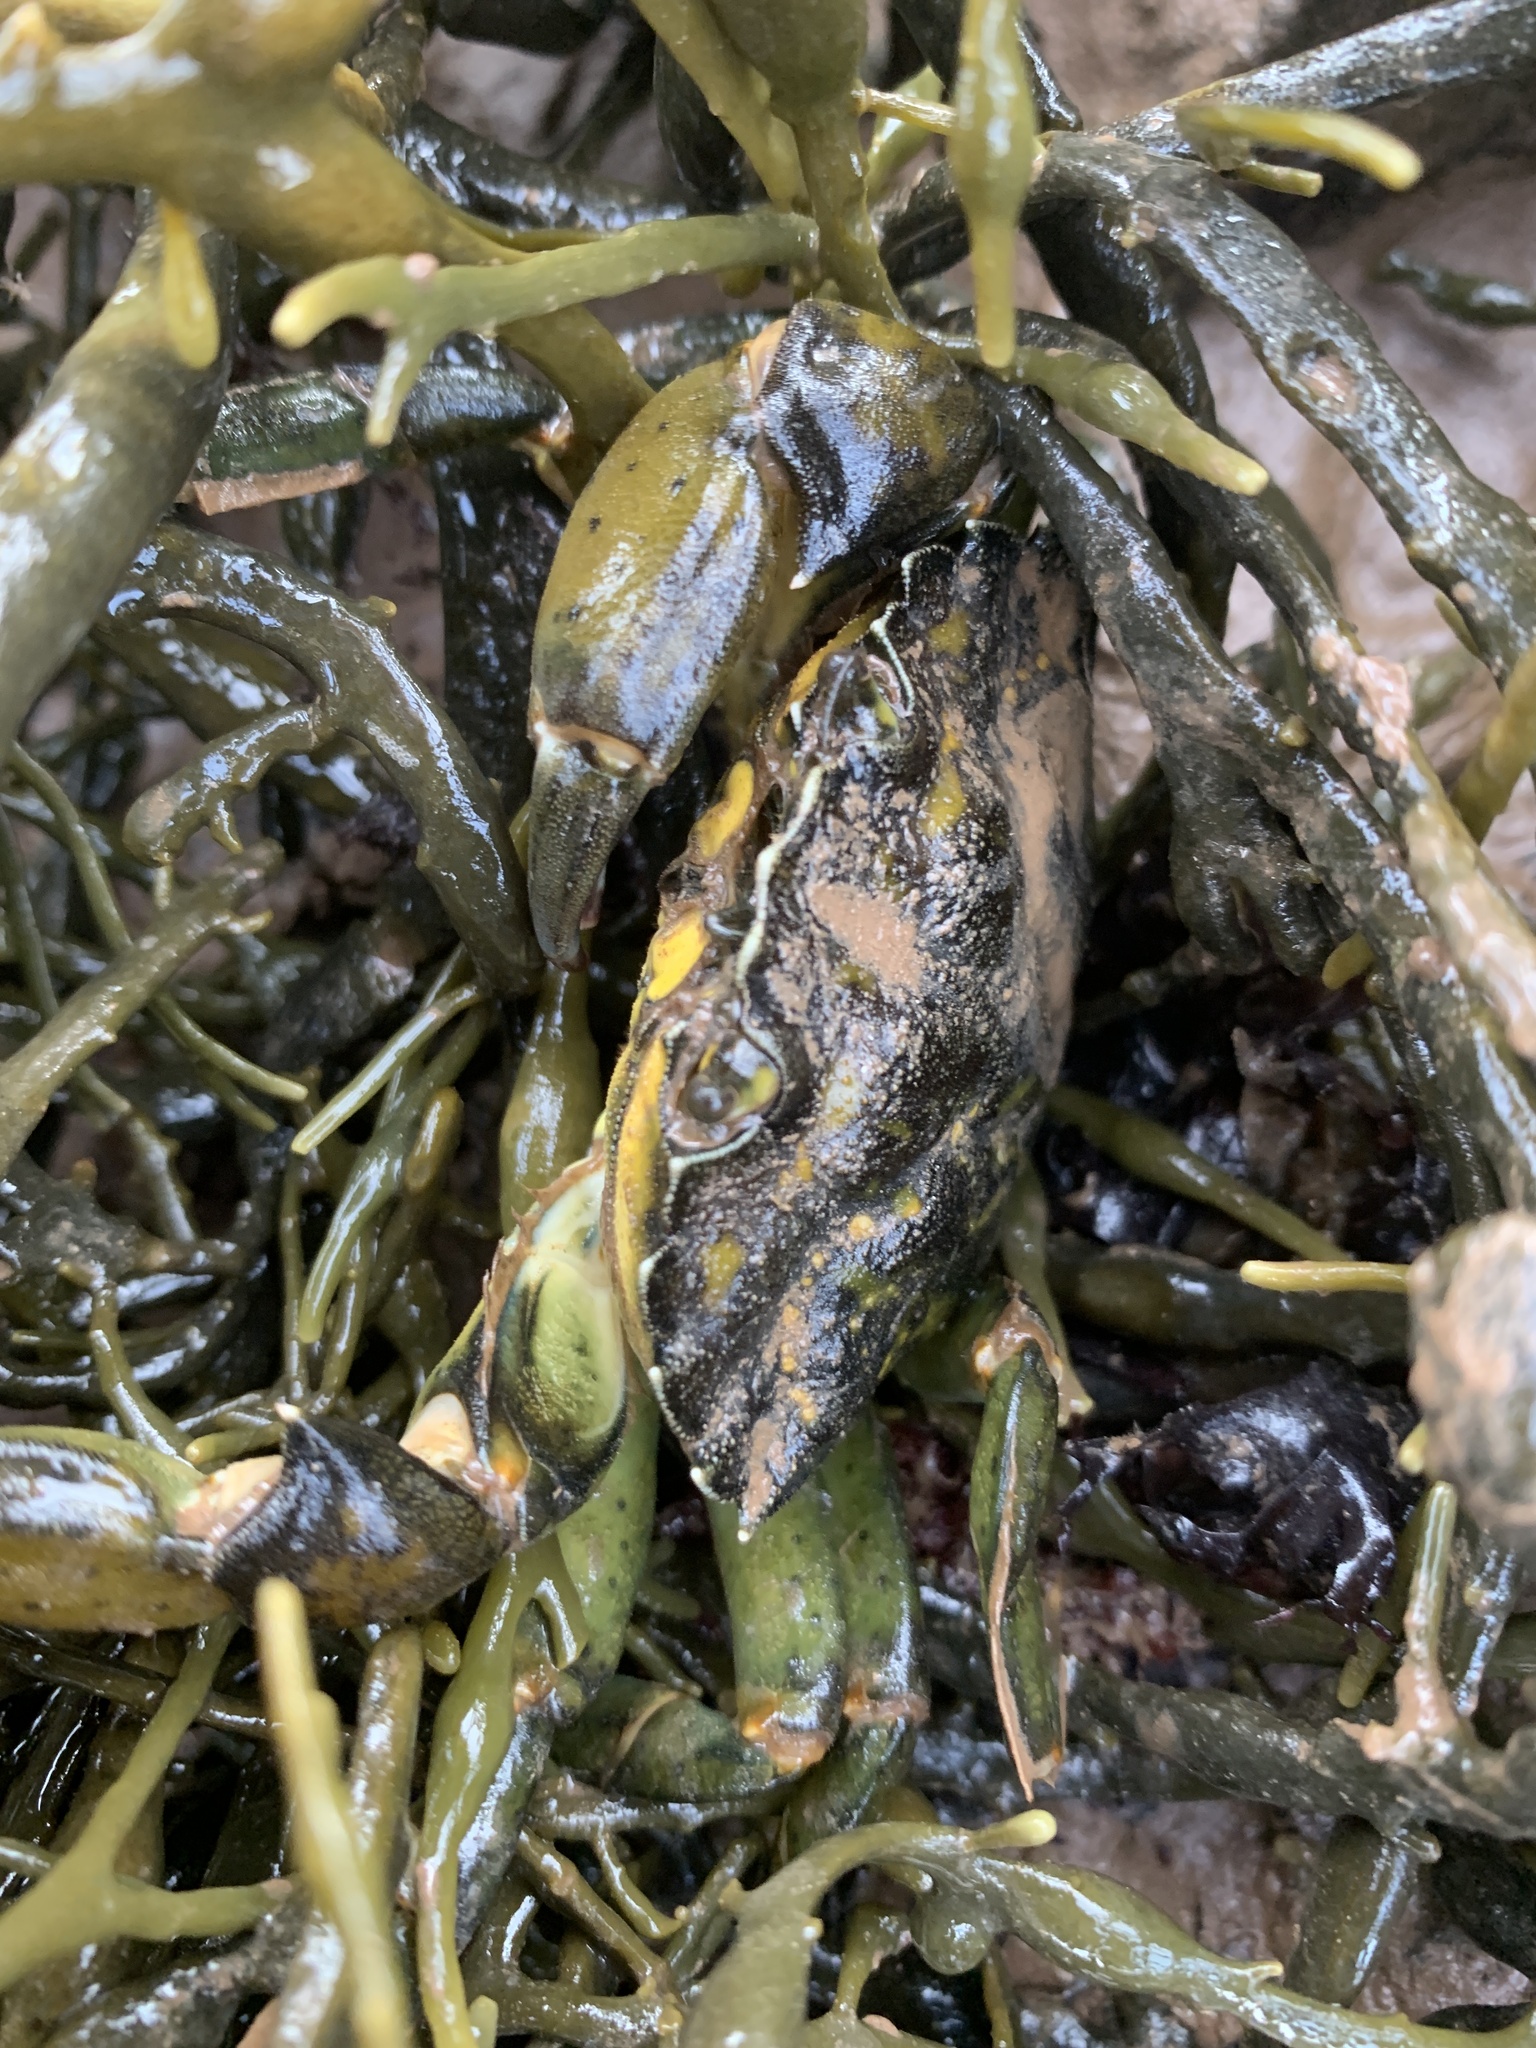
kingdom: Animalia
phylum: Arthropoda
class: Malacostraca
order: Decapoda
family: Carcinidae
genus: Carcinus
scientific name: Carcinus maenas
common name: European green crab
